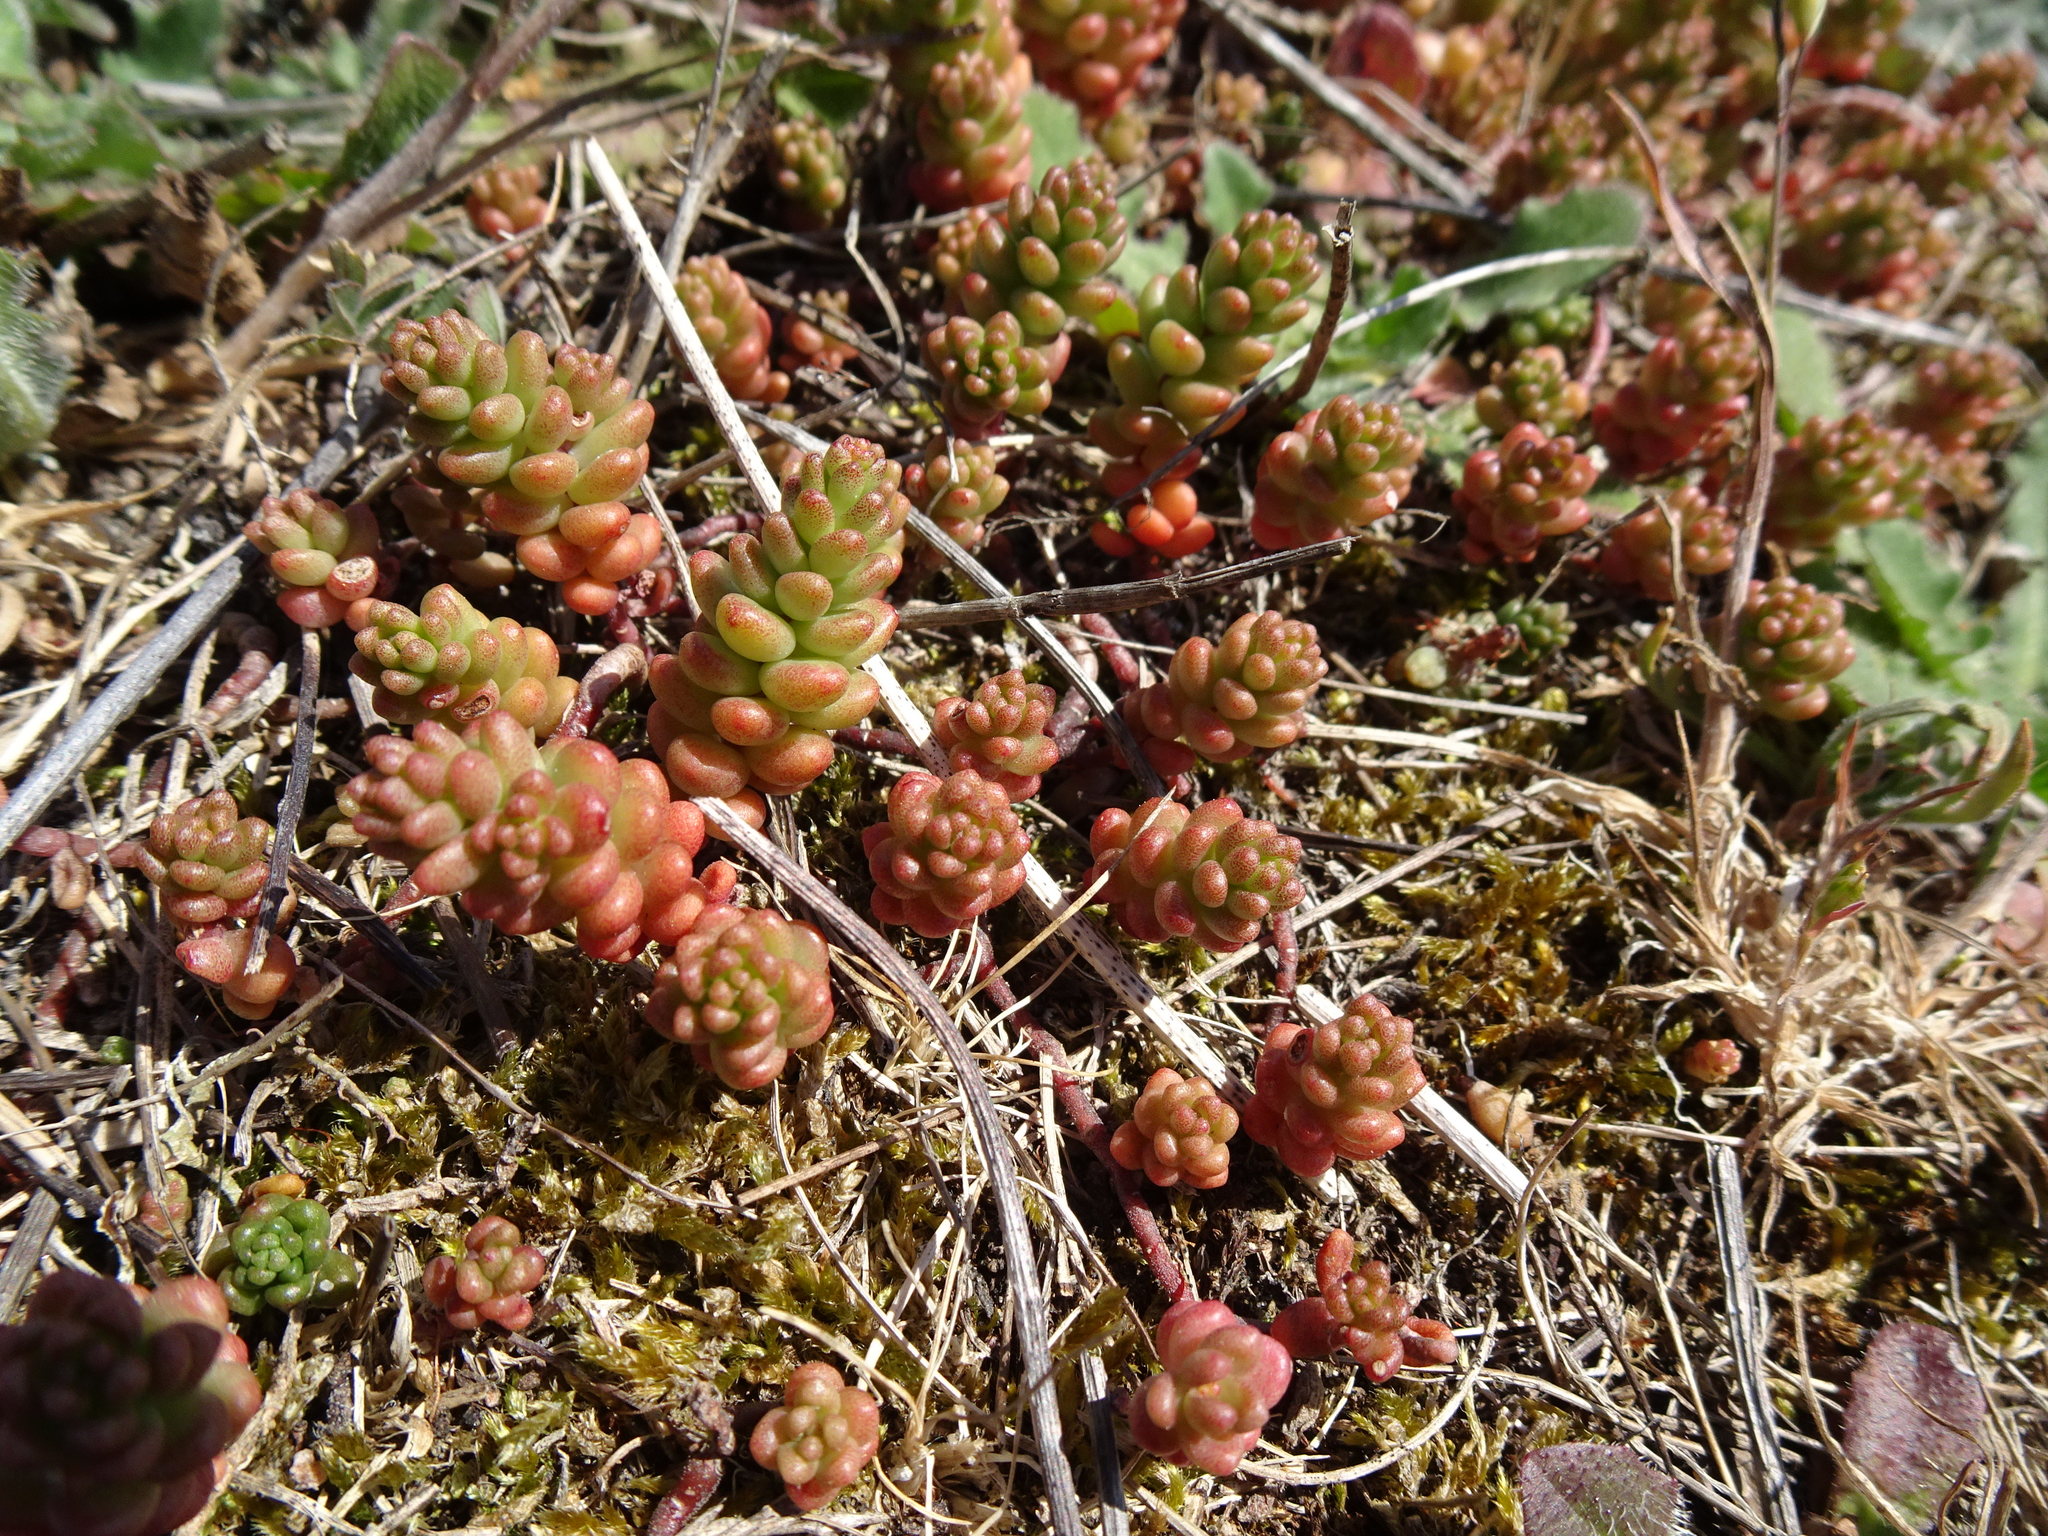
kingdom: Plantae
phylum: Tracheophyta
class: Magnoliopsida
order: Saxifragales
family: Crassulaceae
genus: Sedum
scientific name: Sedum album
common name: White stonecrop
